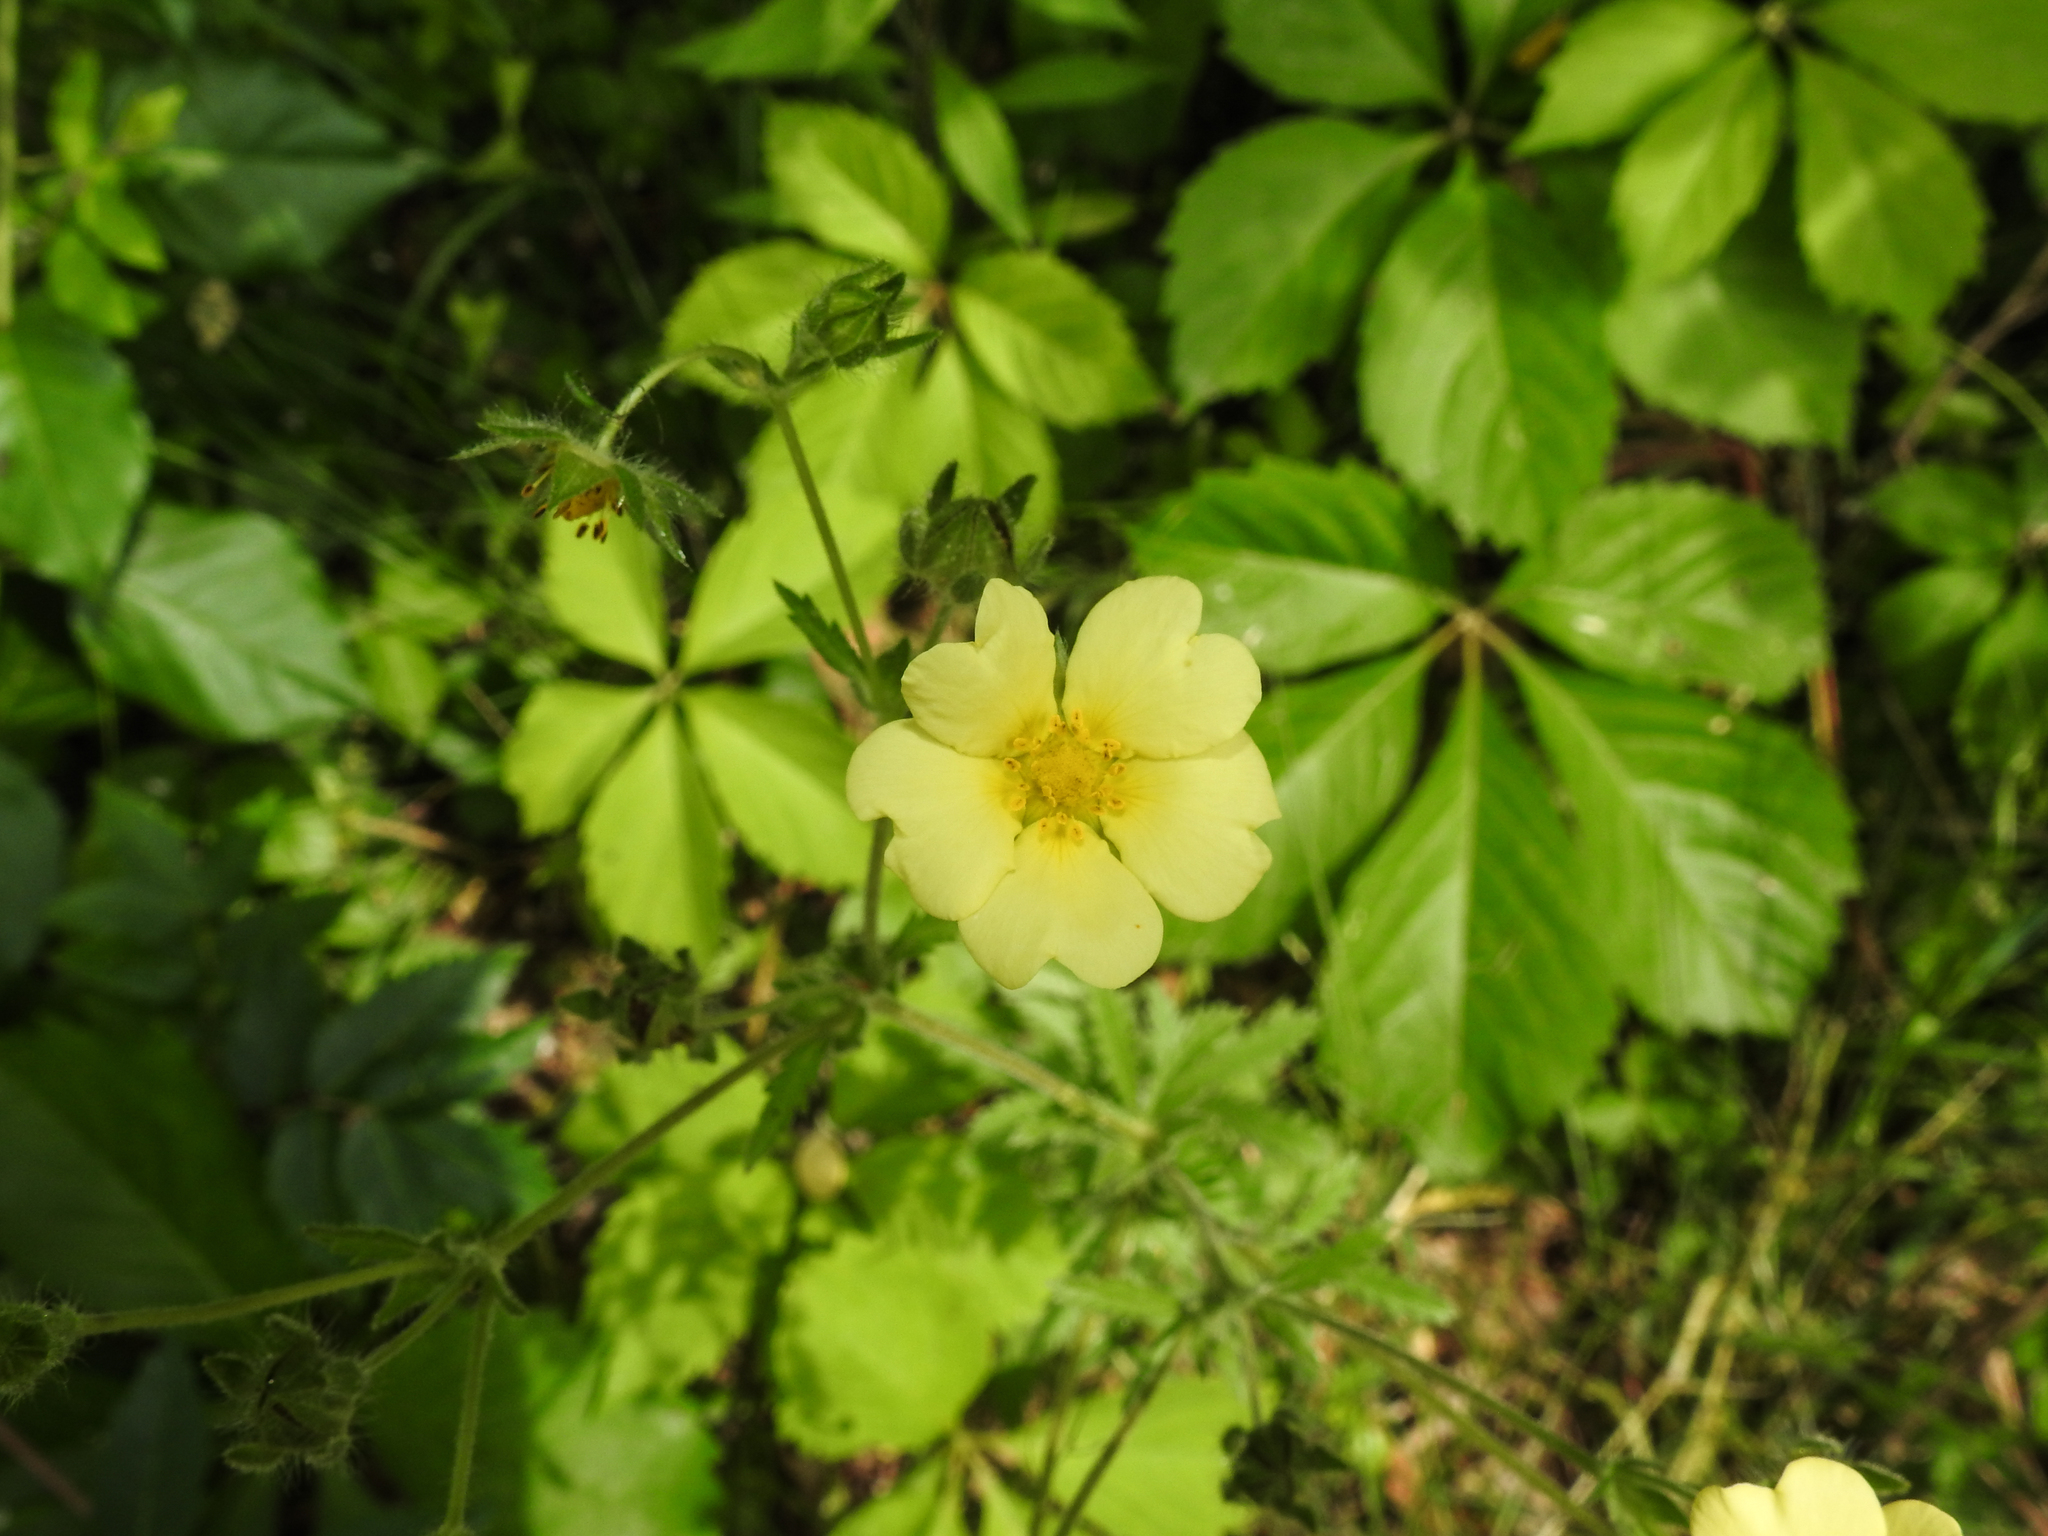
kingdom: Plantae
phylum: Tracheophyta
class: Magnoliopsida
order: Rosales
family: Rosaceae
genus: Potentilla
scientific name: Potentilla recta
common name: Sulphur cinquefoil
